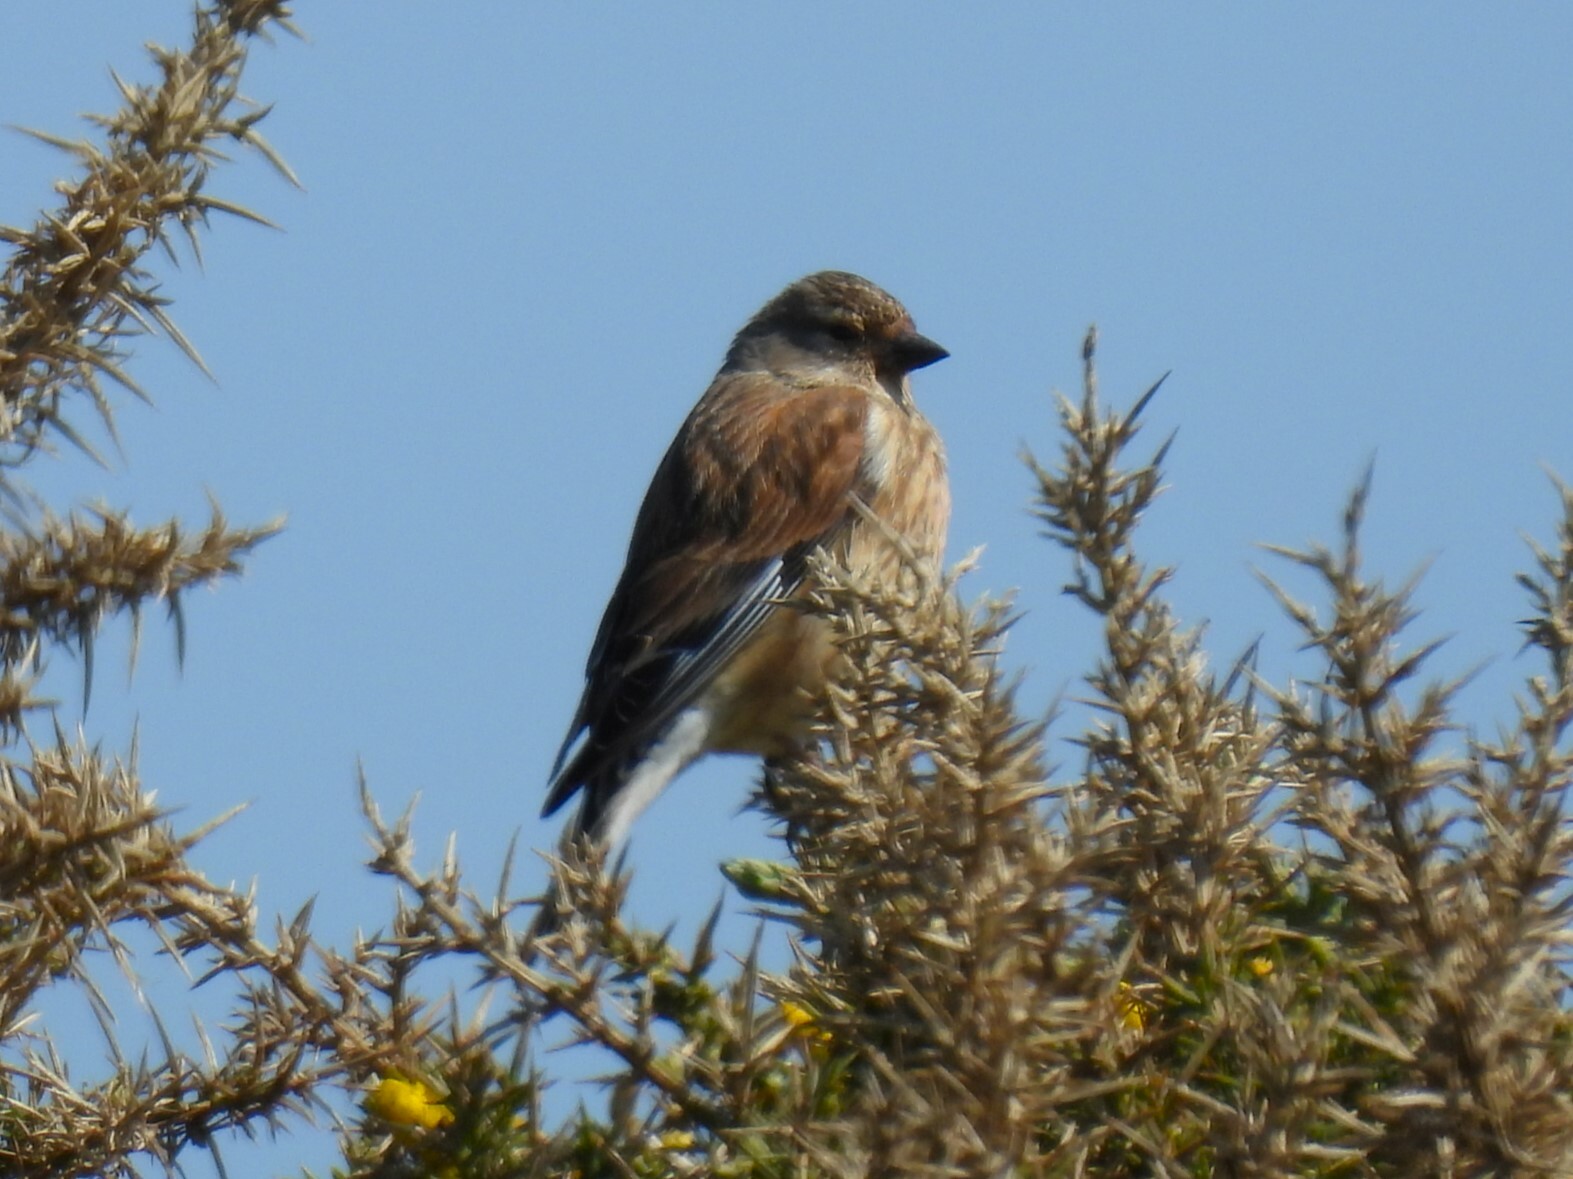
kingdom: Animalia
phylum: Chordata
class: Aves
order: Passeriformes
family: Fringillidae
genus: Linaria
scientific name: Linaria cannabina
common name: Common linnet
